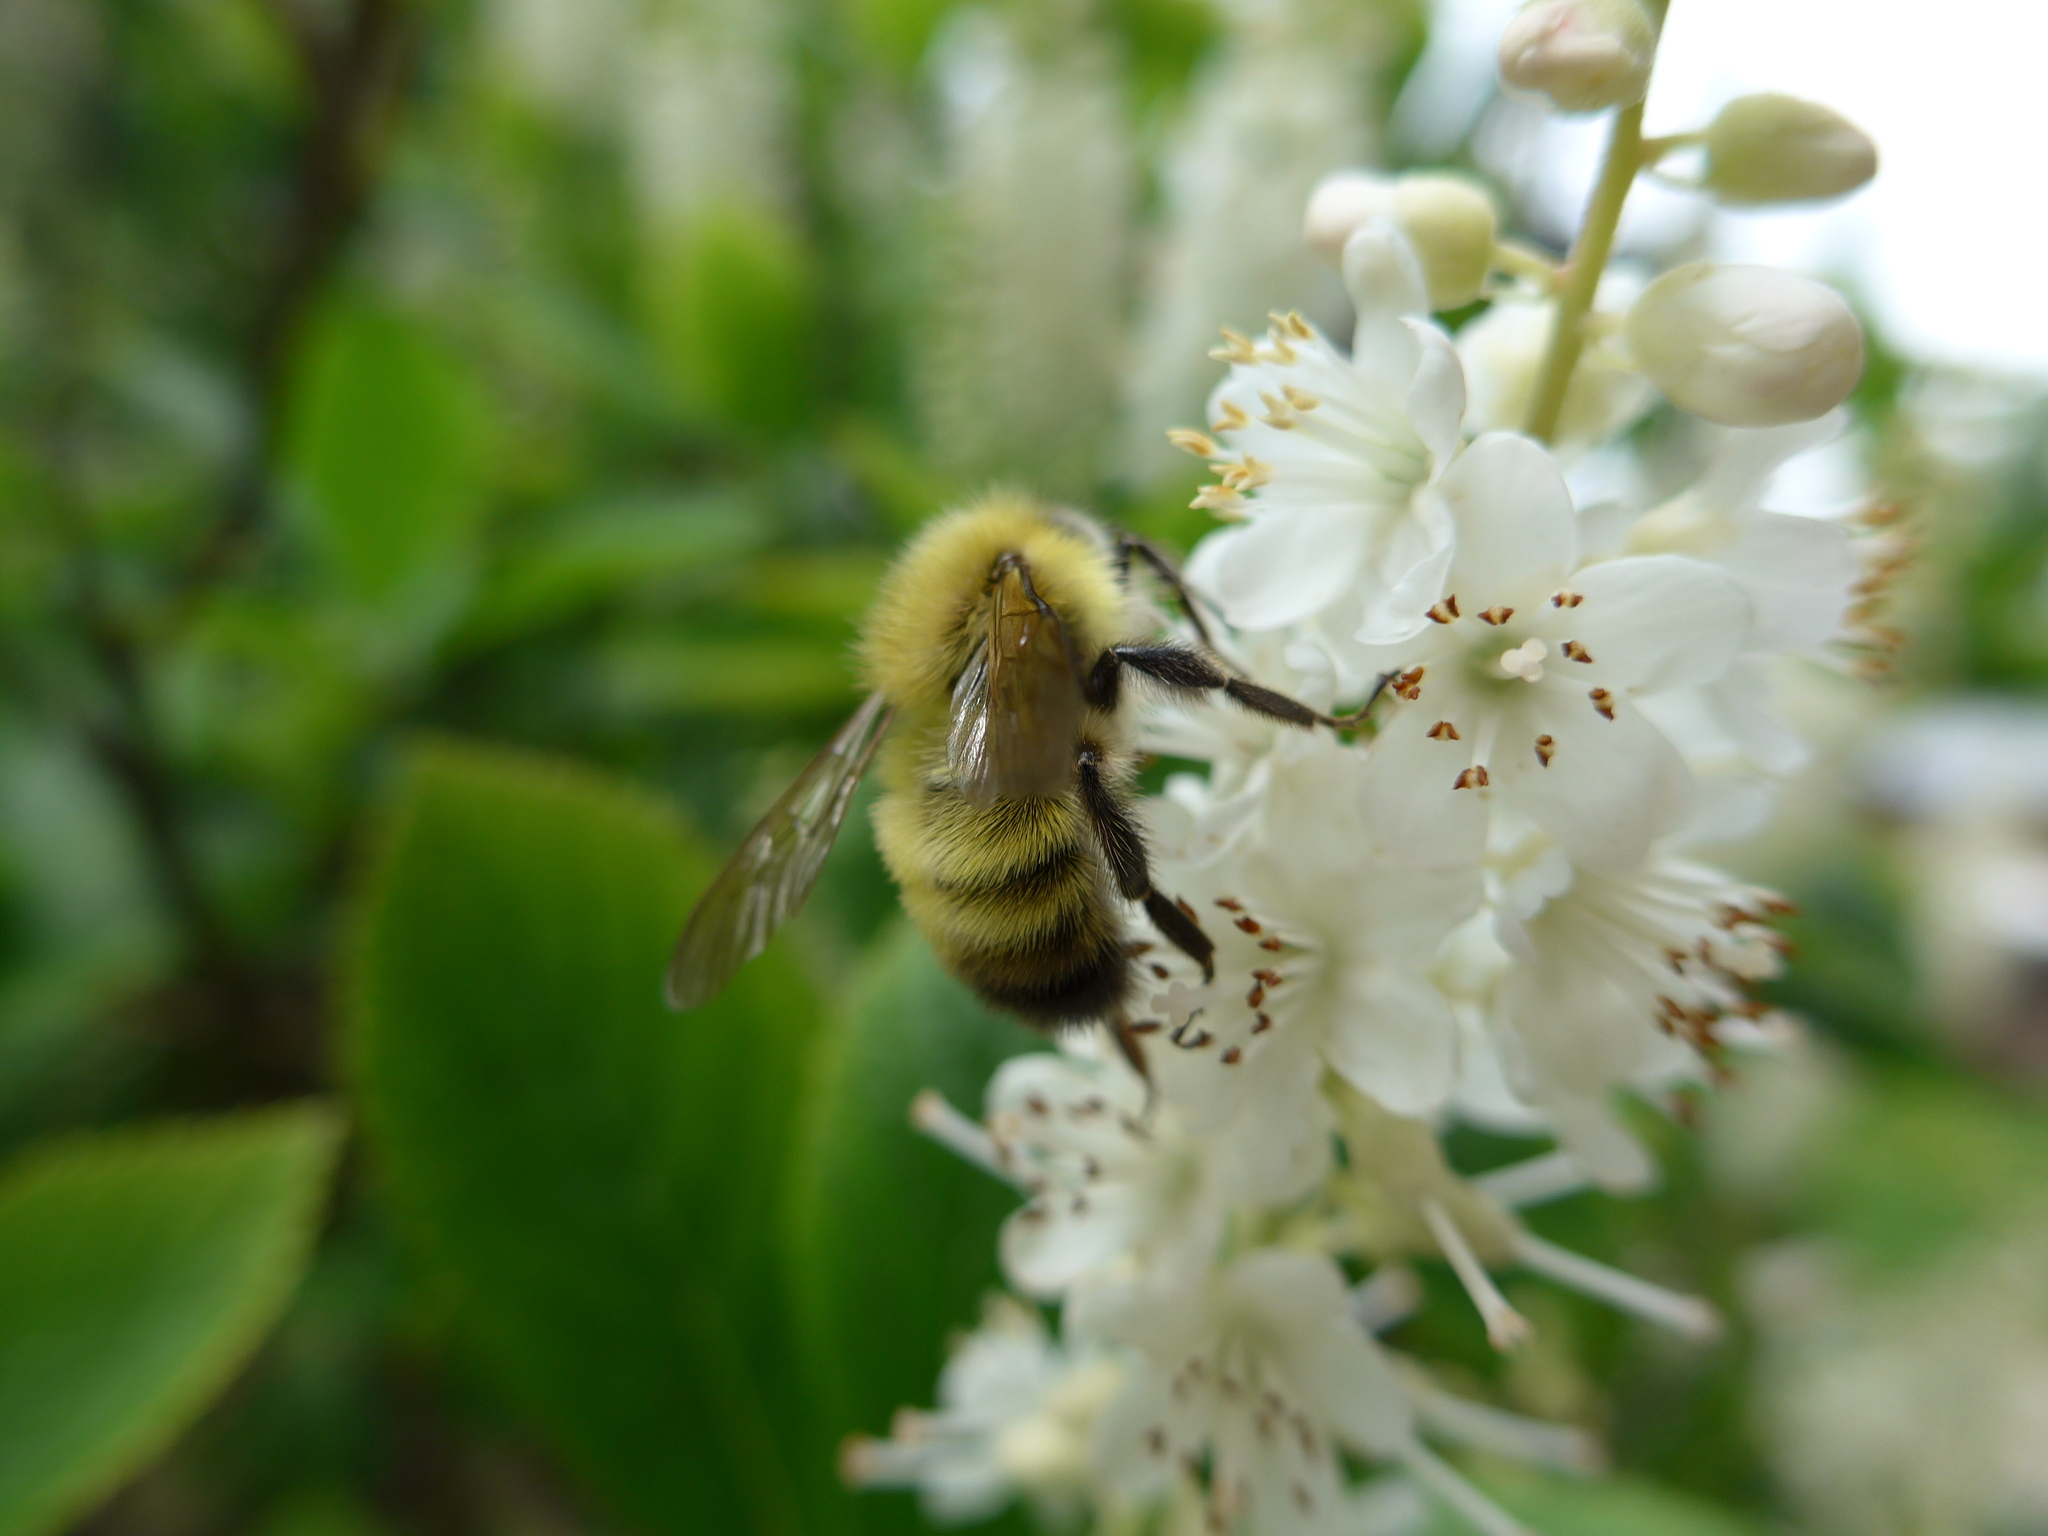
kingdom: Animalia
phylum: Arthropoda
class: Insecta
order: Hymenoptera
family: Apidae
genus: Bombus
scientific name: Bombus perplexus
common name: Confusing bumble bee
